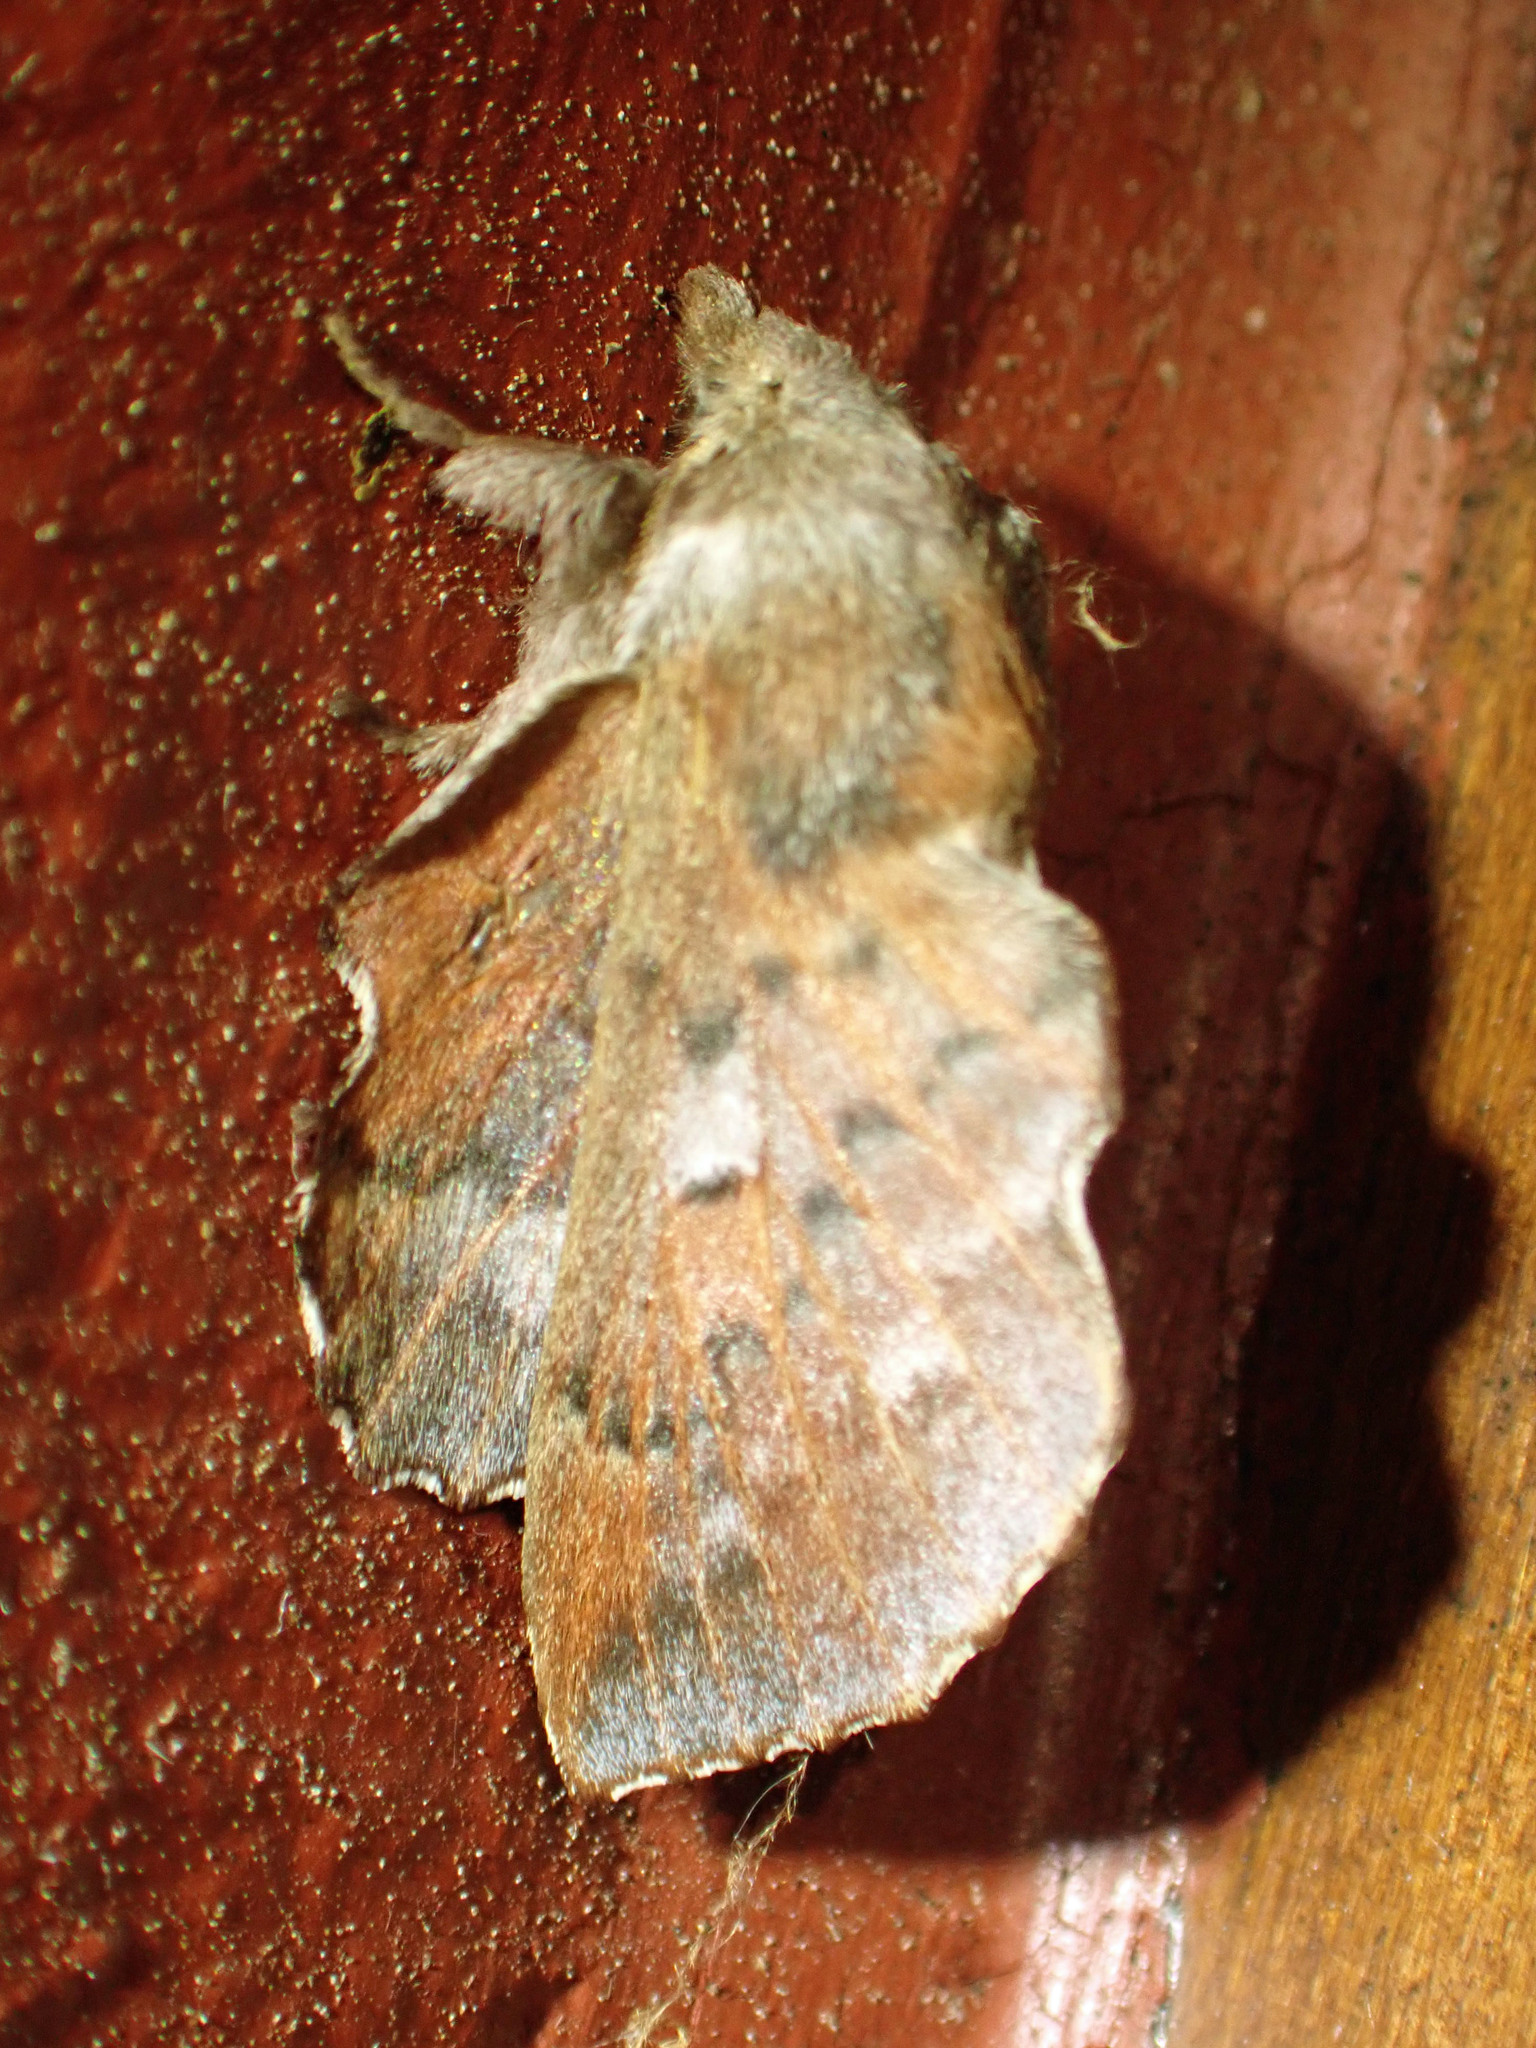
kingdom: Animalia
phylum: Arthropoda
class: Insecta
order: Lepidoptera
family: Lasiocampidae
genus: Phyllodesma
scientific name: Phyllodesma americana
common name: American lappet moth
